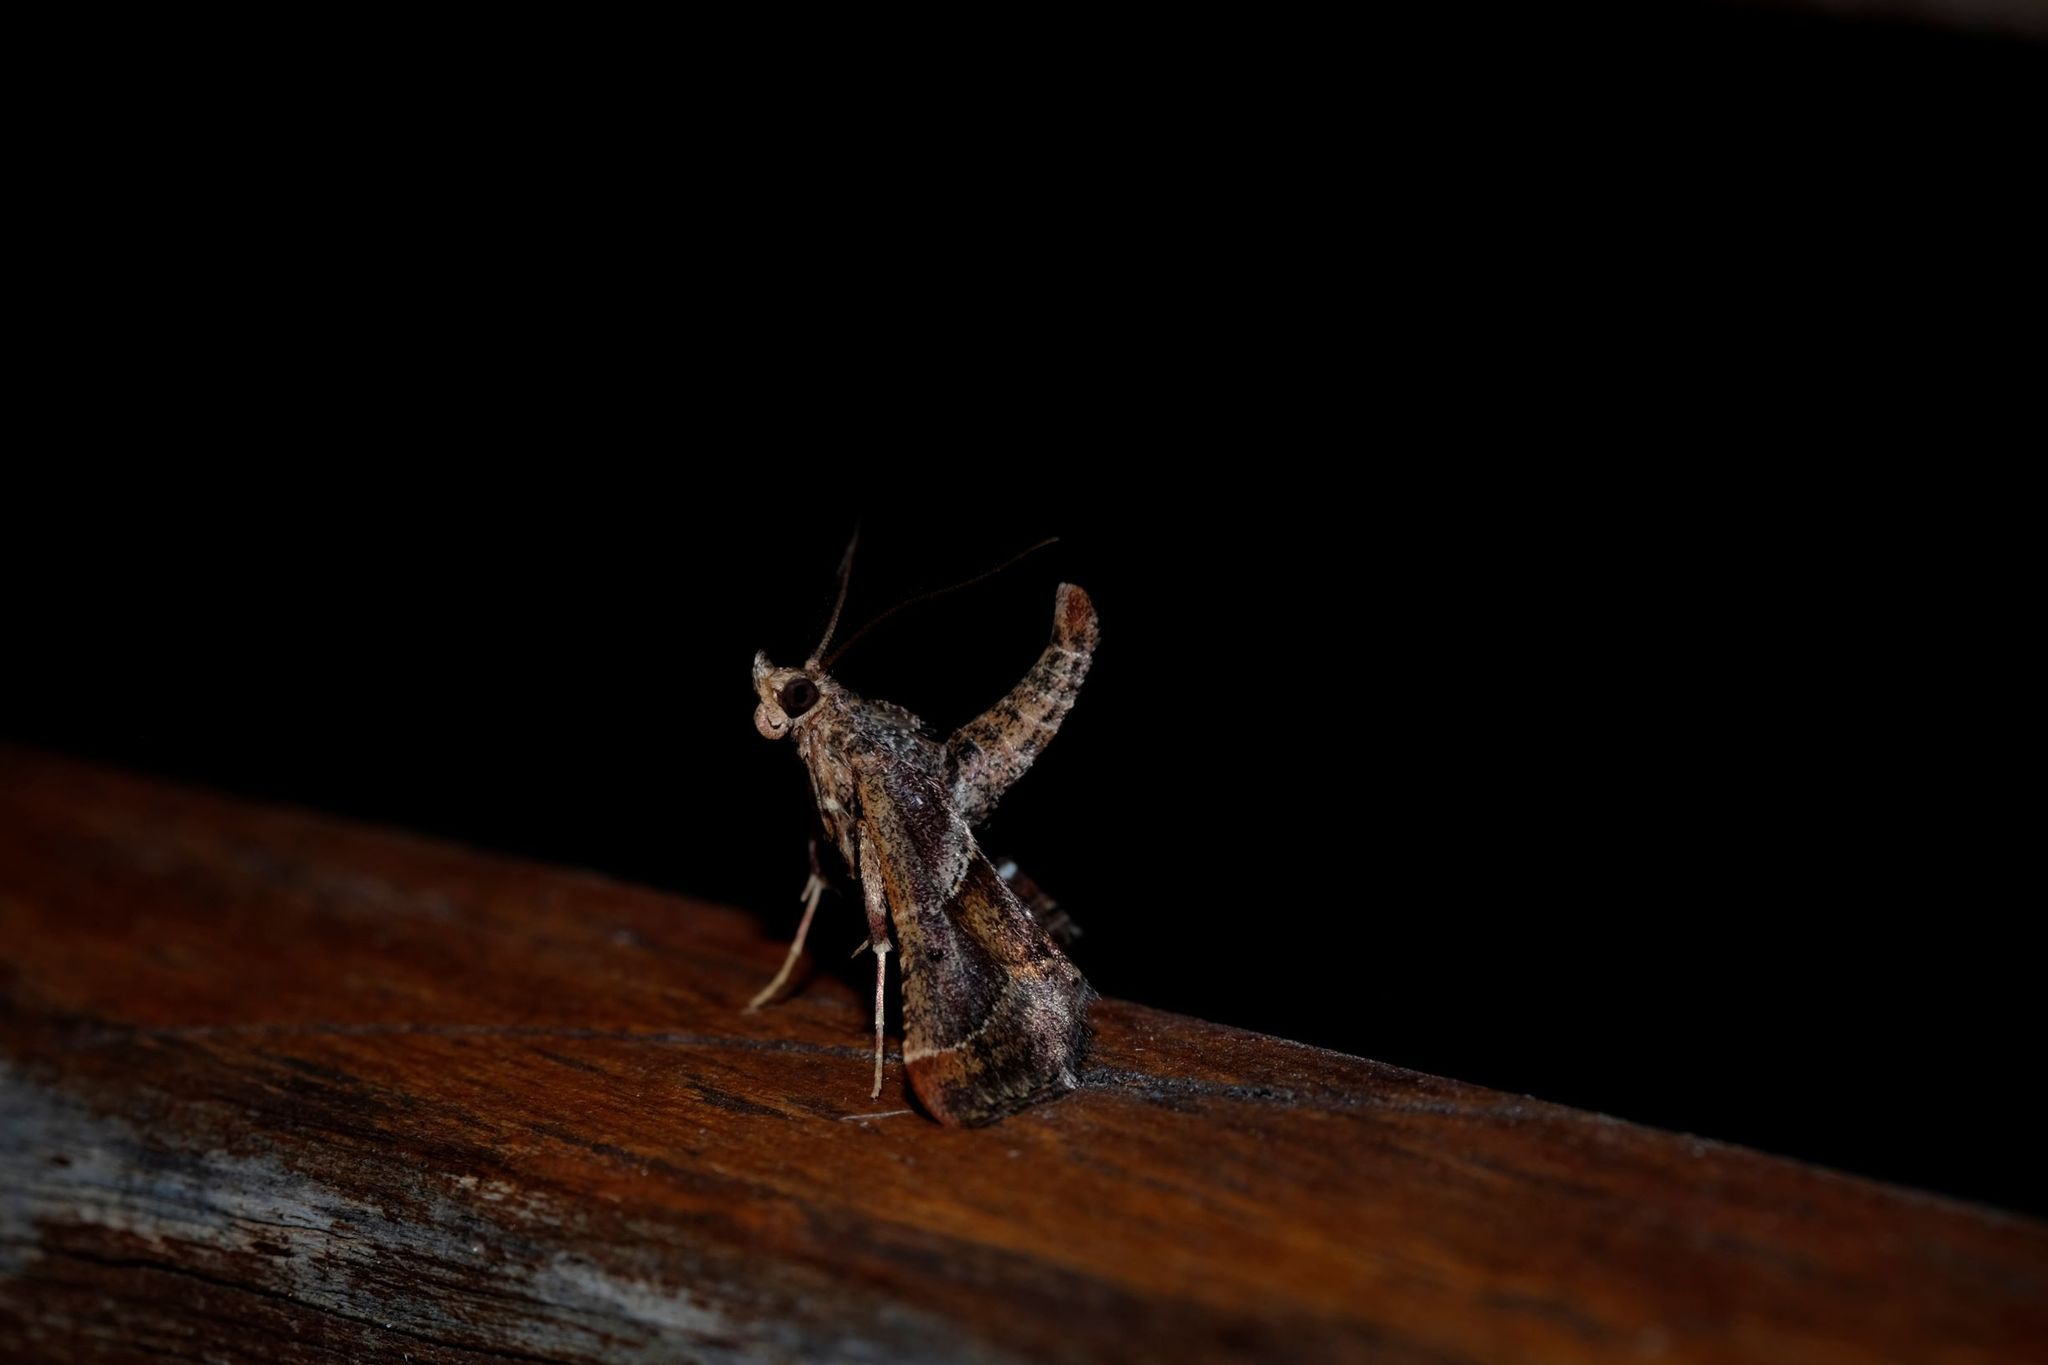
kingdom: Animalia
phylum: Arthropoda
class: Insecta
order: Lepidoptera
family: Pyralidae
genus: Gauna
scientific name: Gauna aegusalis
